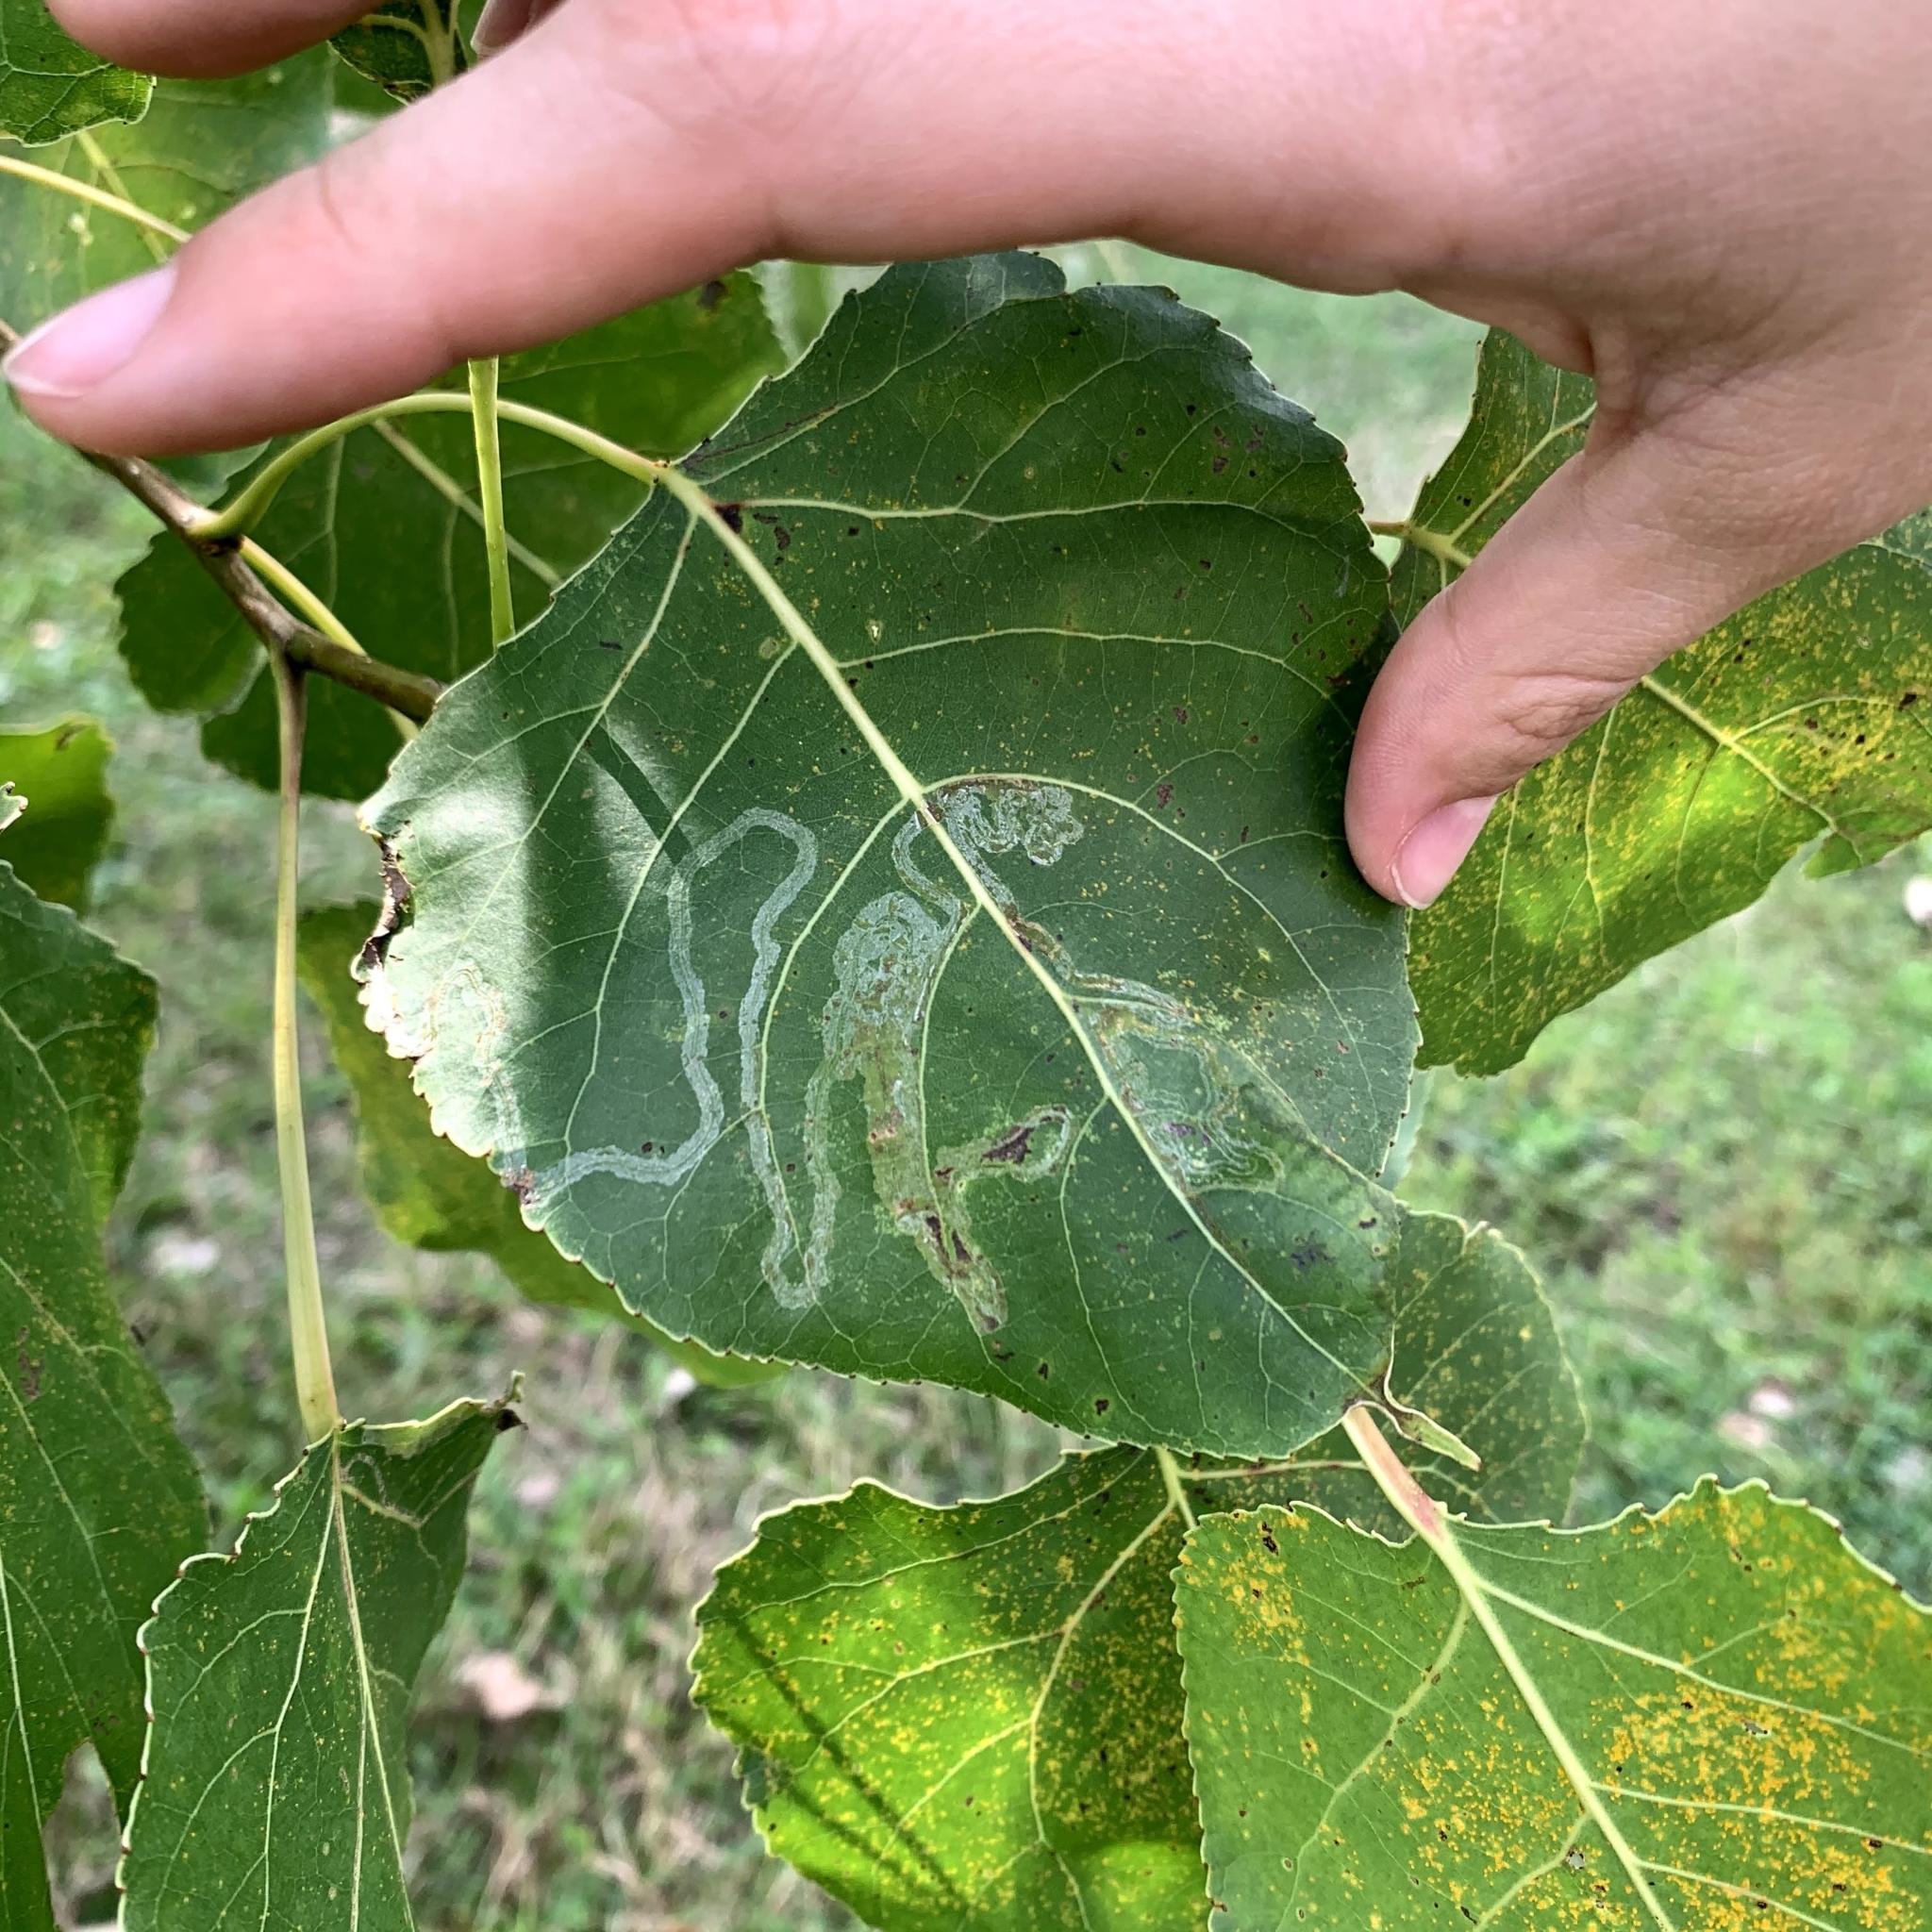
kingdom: Animalia
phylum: Arthropoda
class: Insecta
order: Lepidoptera
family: Gracillariidae
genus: Phyllocnistis
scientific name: Phyllocnistis populiella
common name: Aspen serpentine leafminer moth
